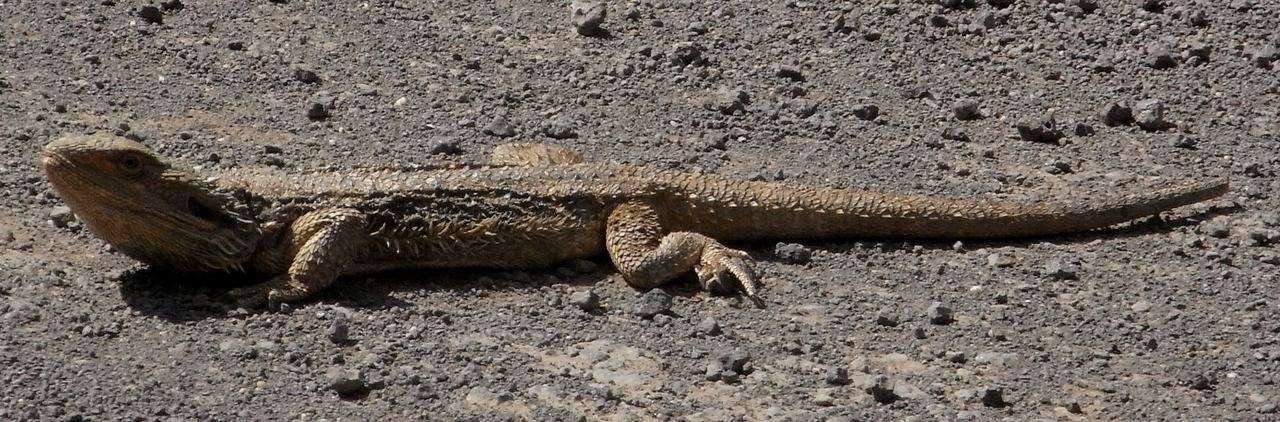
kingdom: Animalia
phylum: Chordata
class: Squamata
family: Agamidae
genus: Pogona
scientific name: Pogona barbata
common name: Bearded dragon
